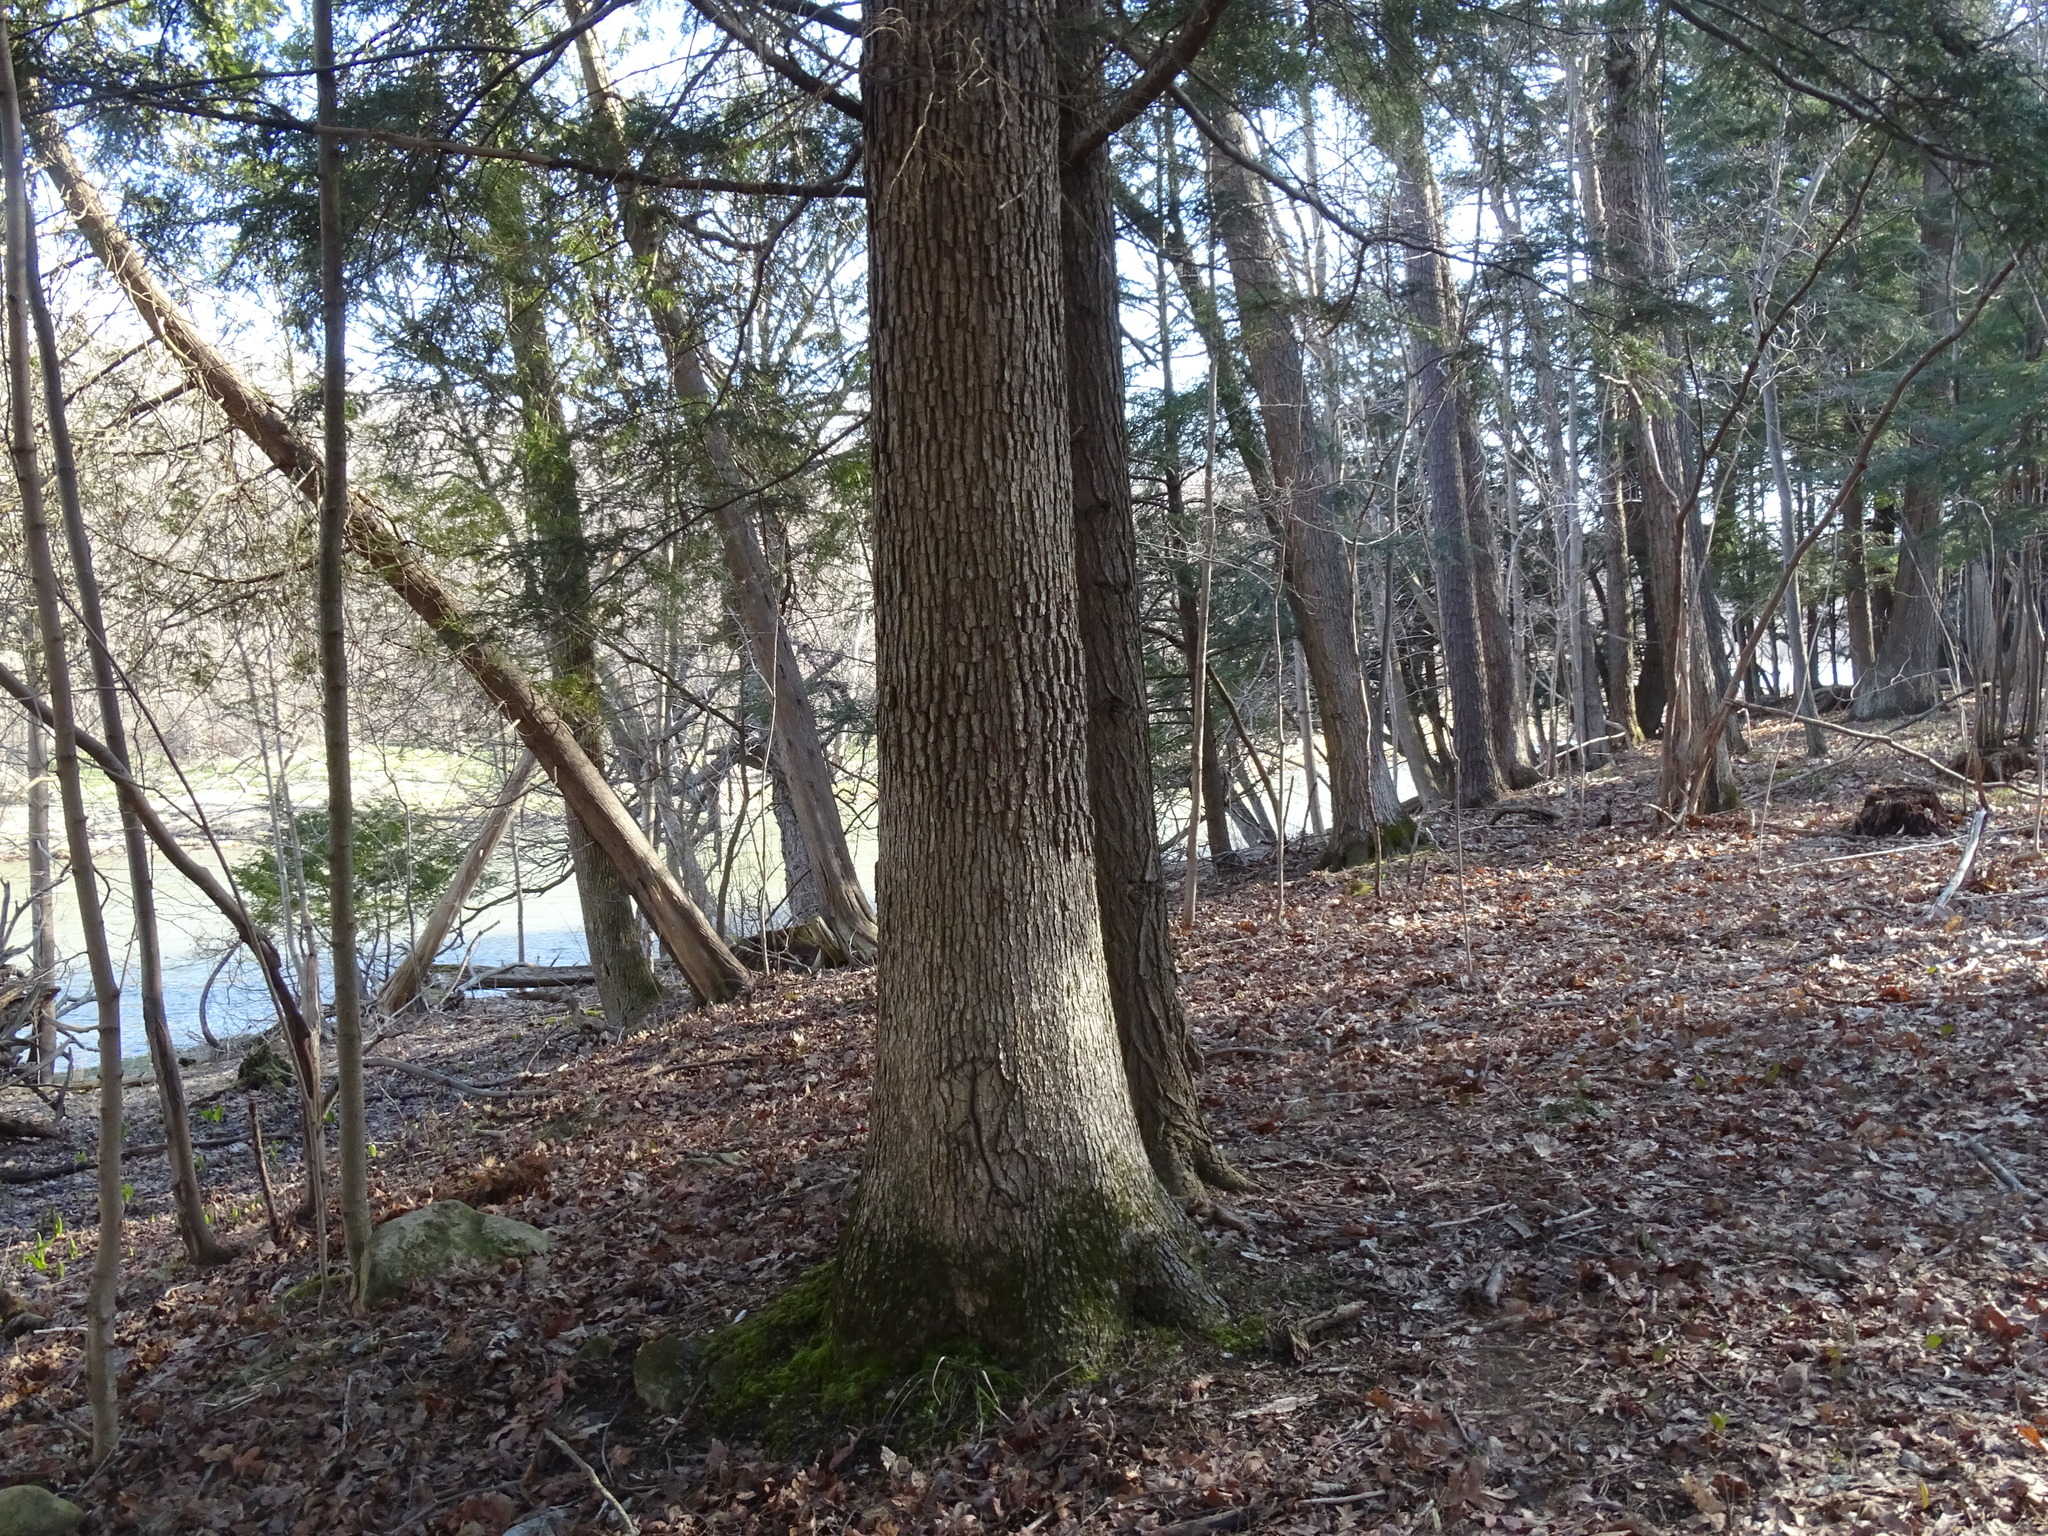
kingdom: Plantae
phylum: Tracheophyta
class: Magnoliopsida
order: Fagales
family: Fagaceae
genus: Quercus
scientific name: Quercus alba
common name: White oak
